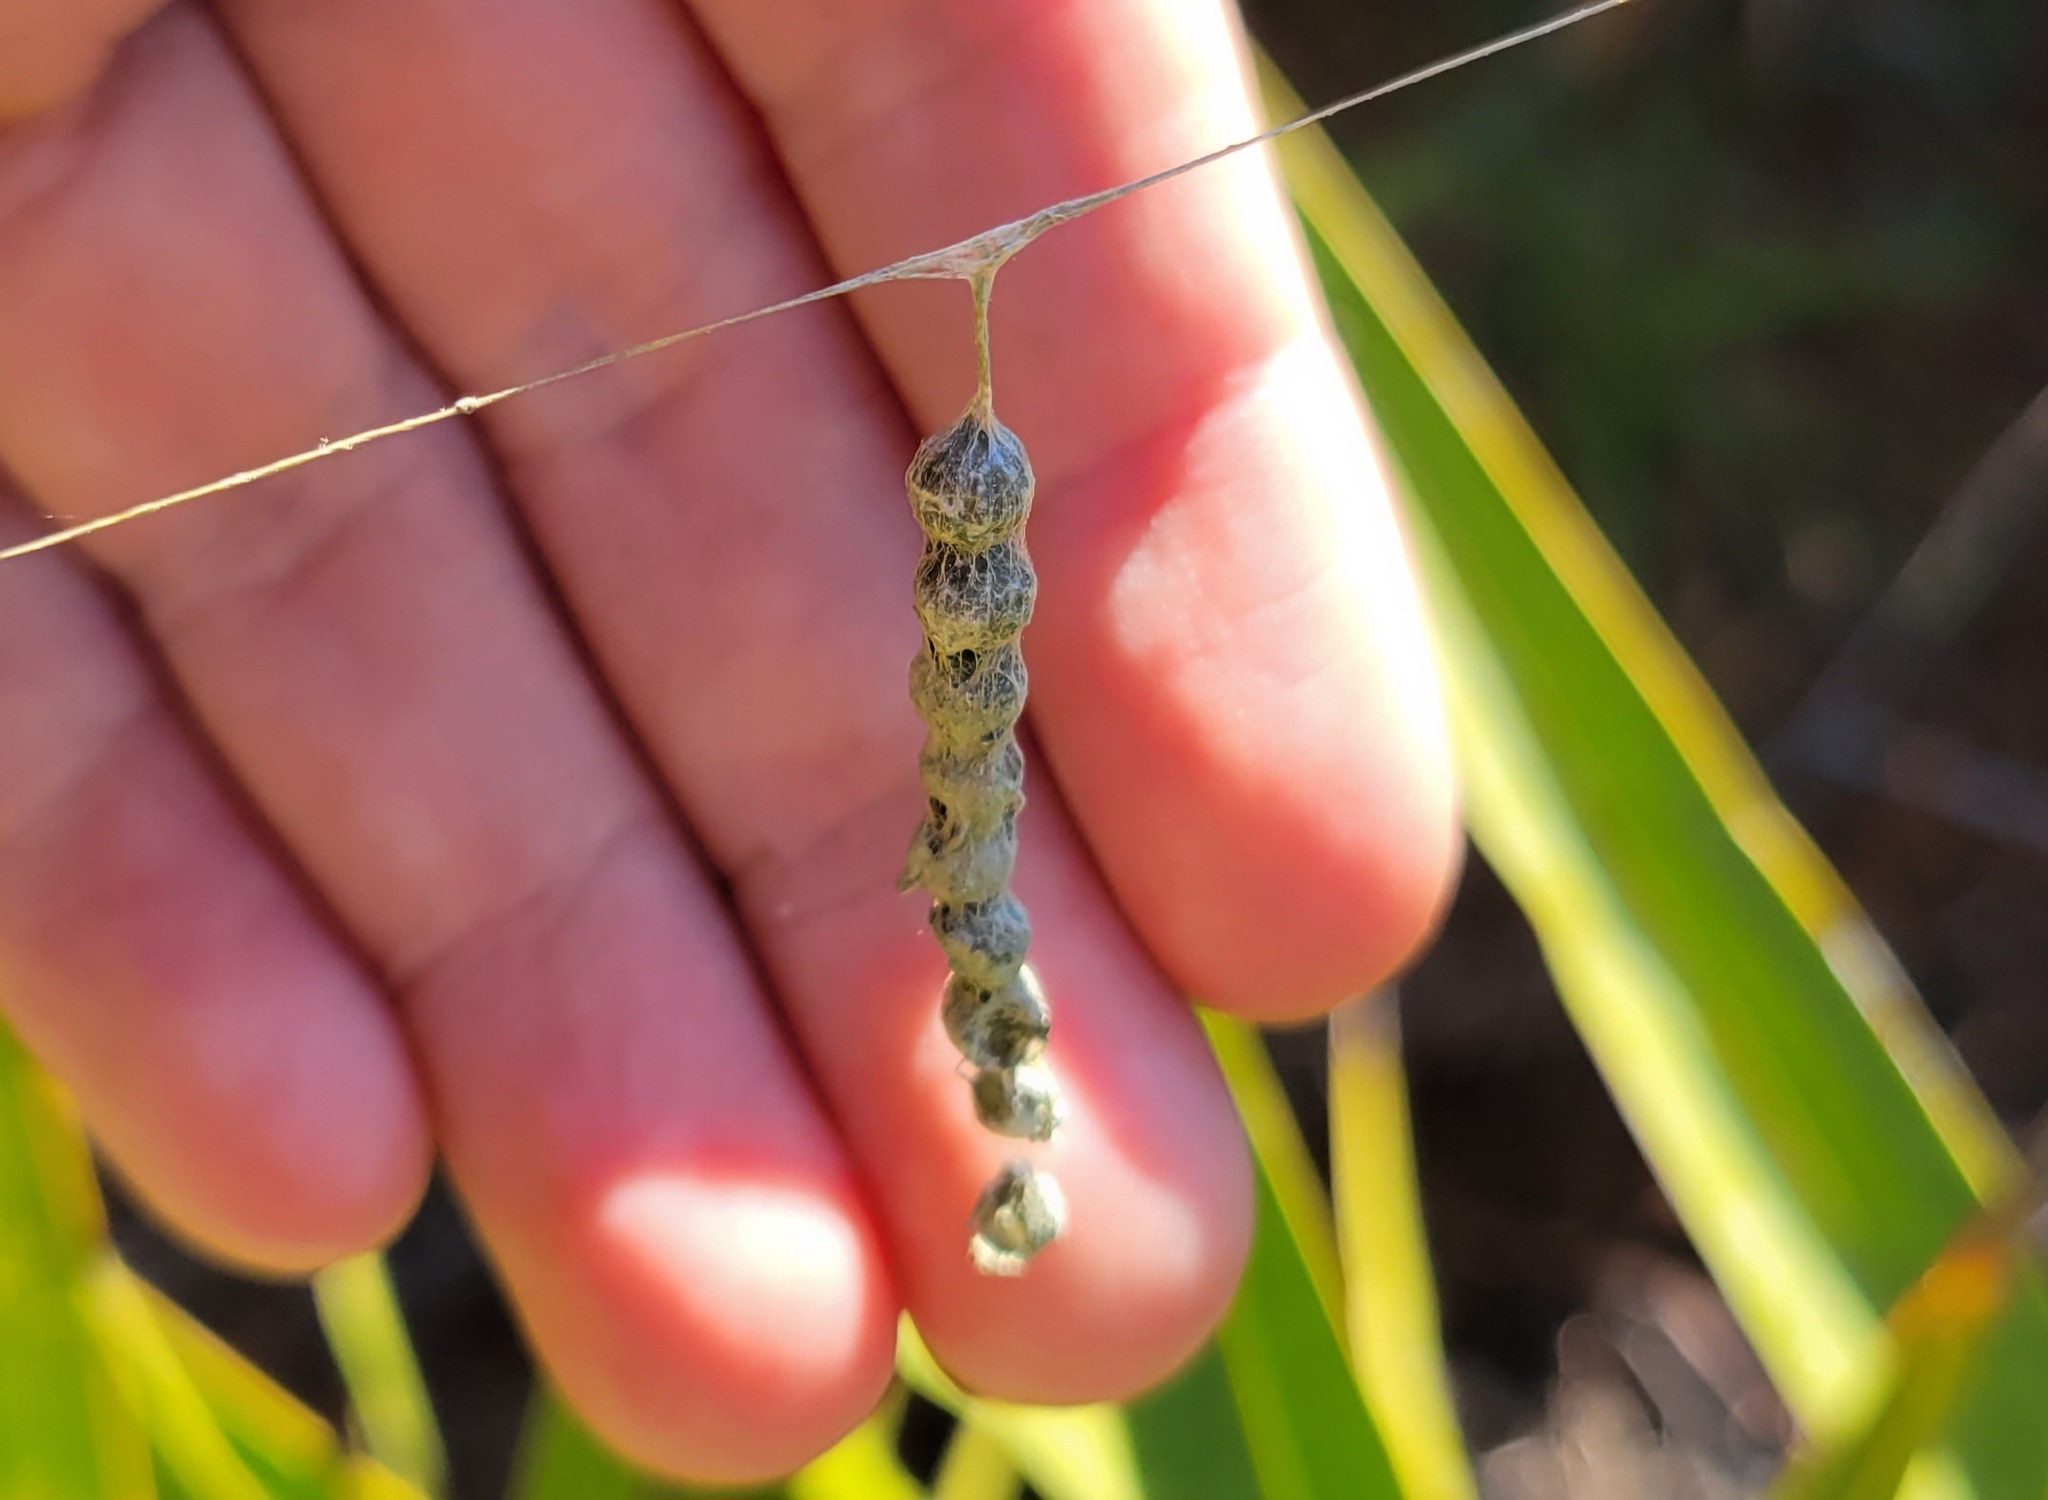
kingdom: Animalia
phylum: Arthropoda
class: Arachnida
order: Araneae
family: Araneidae
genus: Mecynogea
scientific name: Mecynogea lemniscata
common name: Orb weavers
